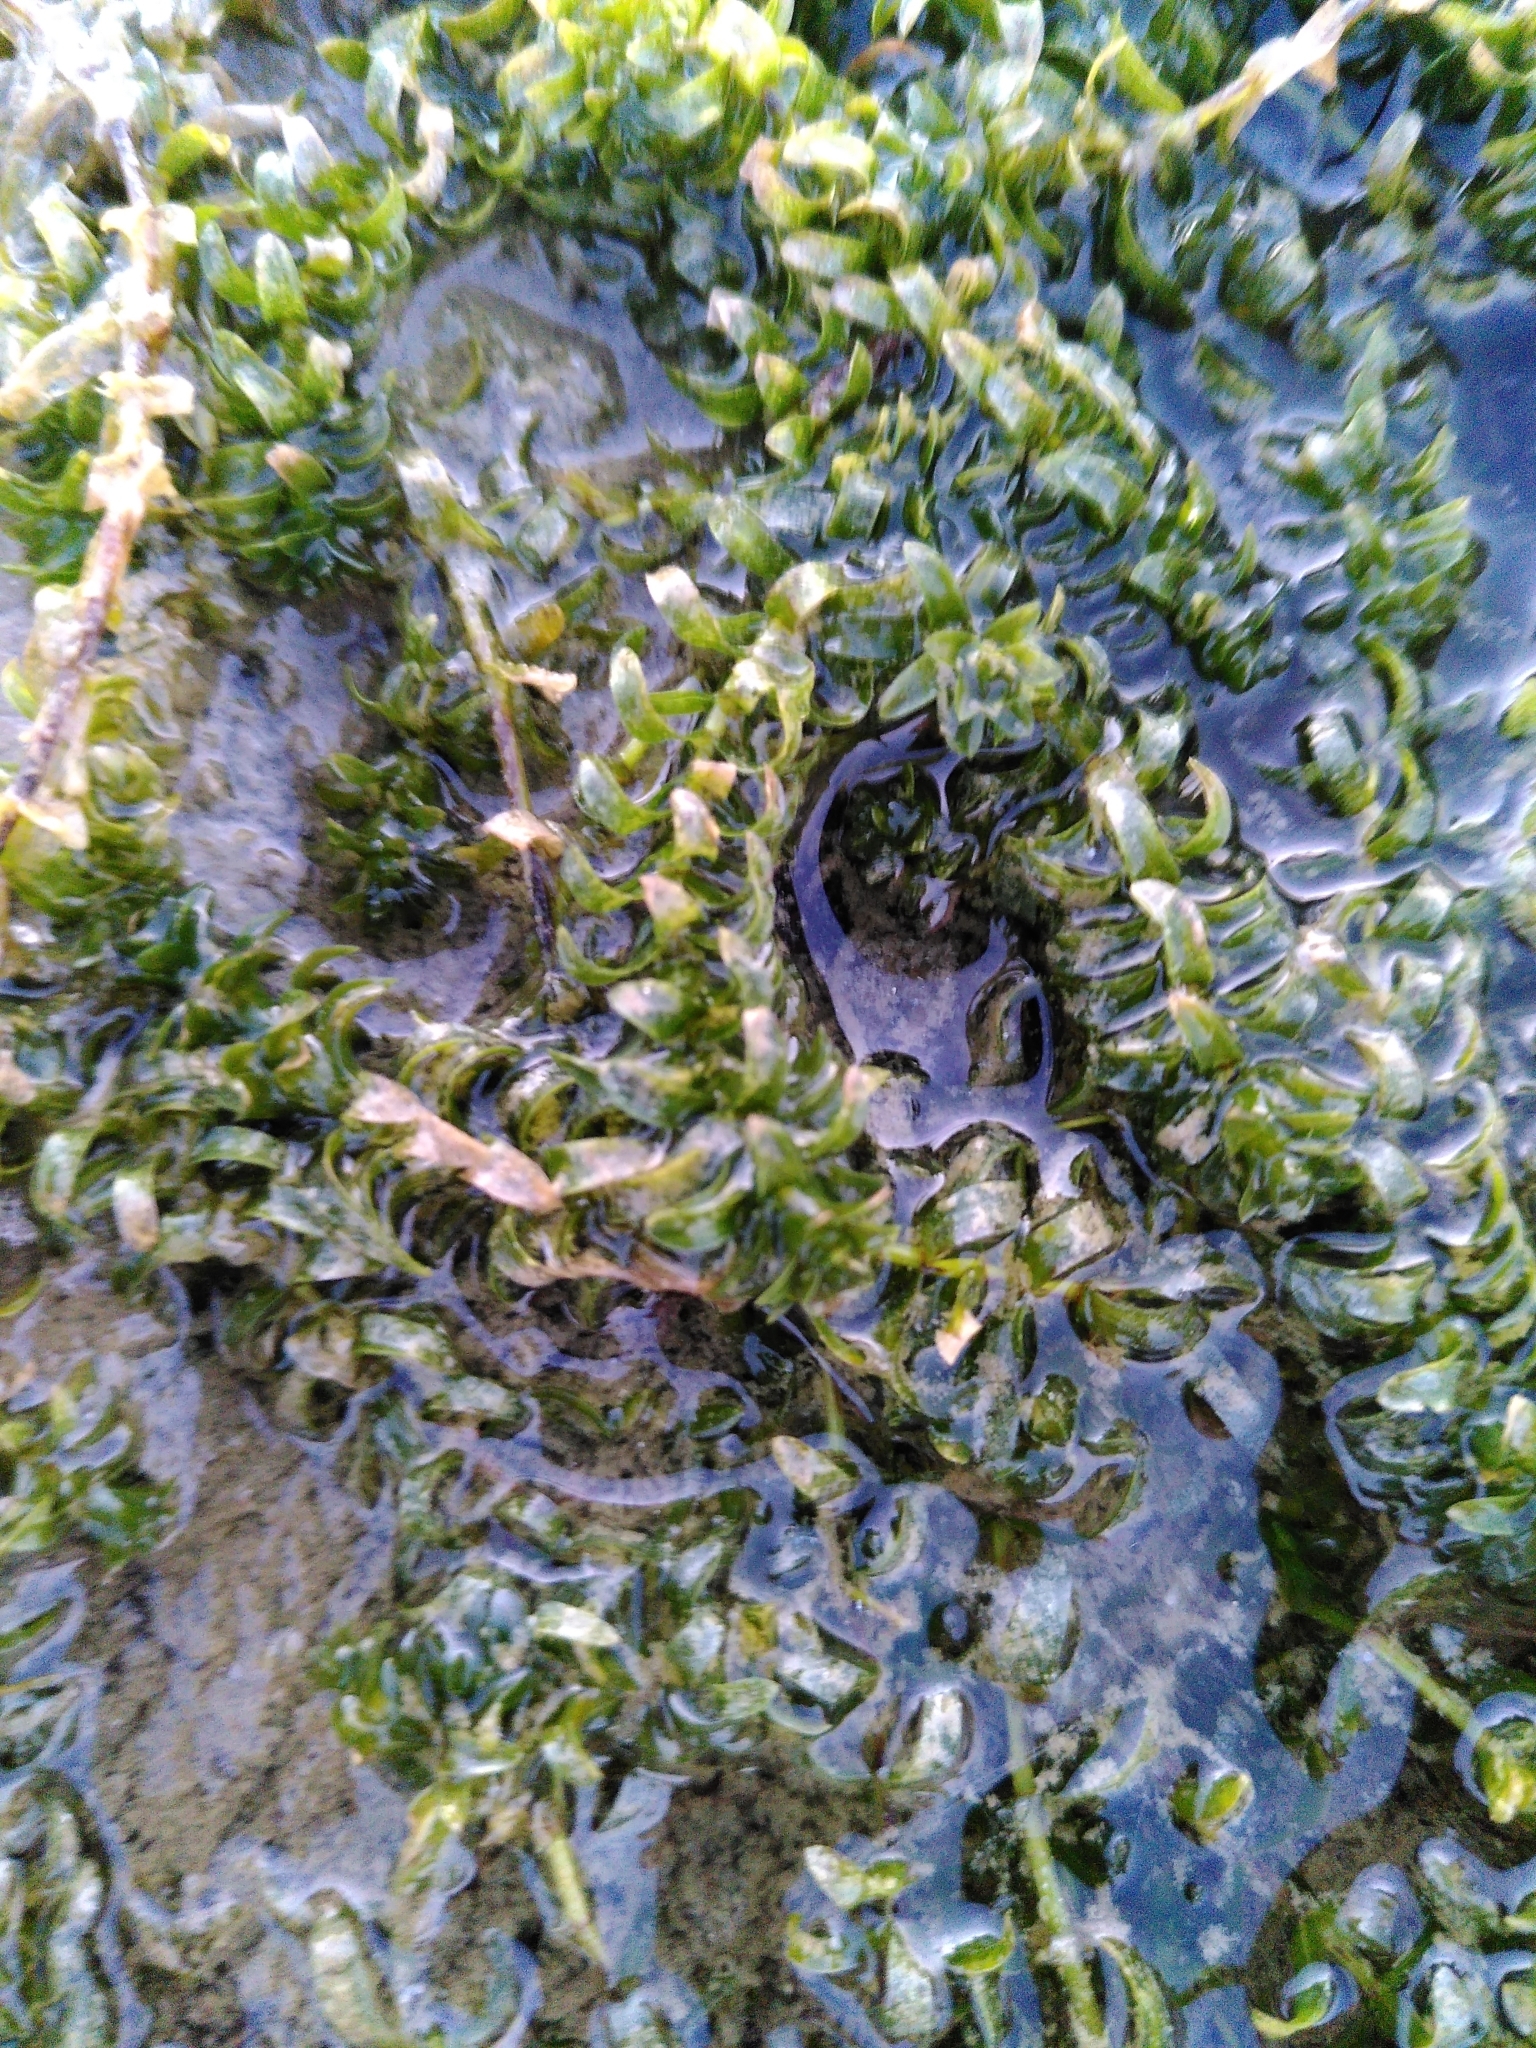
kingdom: Plantae
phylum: Tracheophyta
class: Liliopsida
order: Alismatales
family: Hydrocharitaceae
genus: Elodea
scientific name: Elodea canadensis
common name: Canadian waterweed
